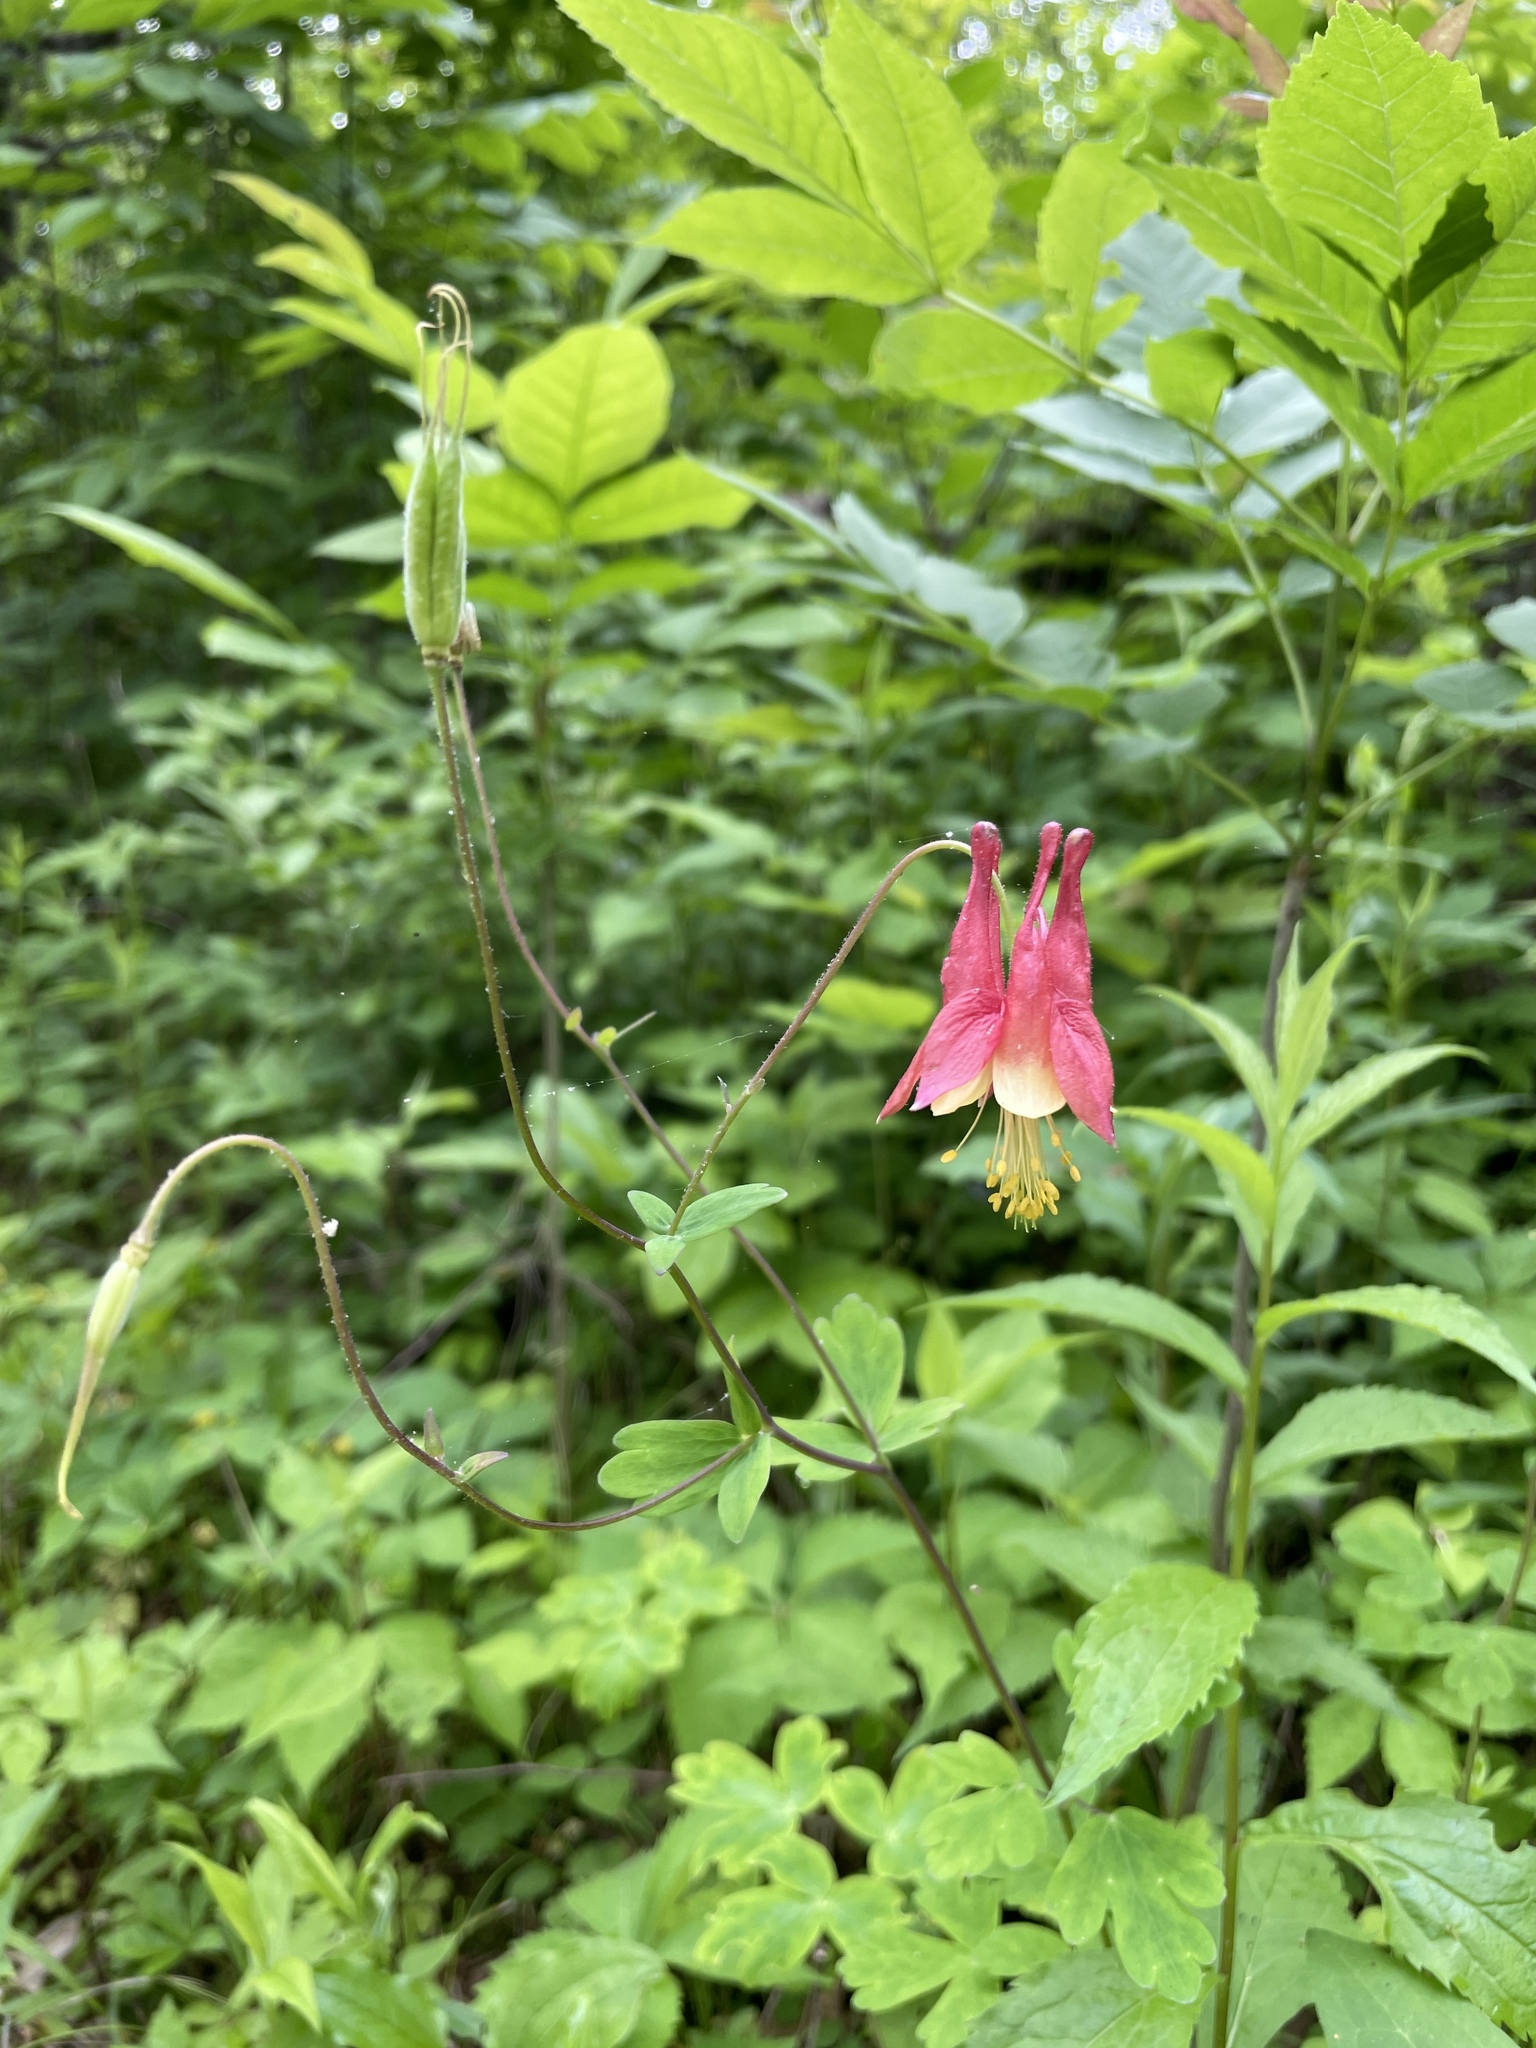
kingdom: Plantae
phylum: Tracheophyta
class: Magnoliopsida
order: Ranunculales
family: Ranunculaceae
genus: Aquilegia
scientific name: Aquilegia canadensis
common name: American columbine
